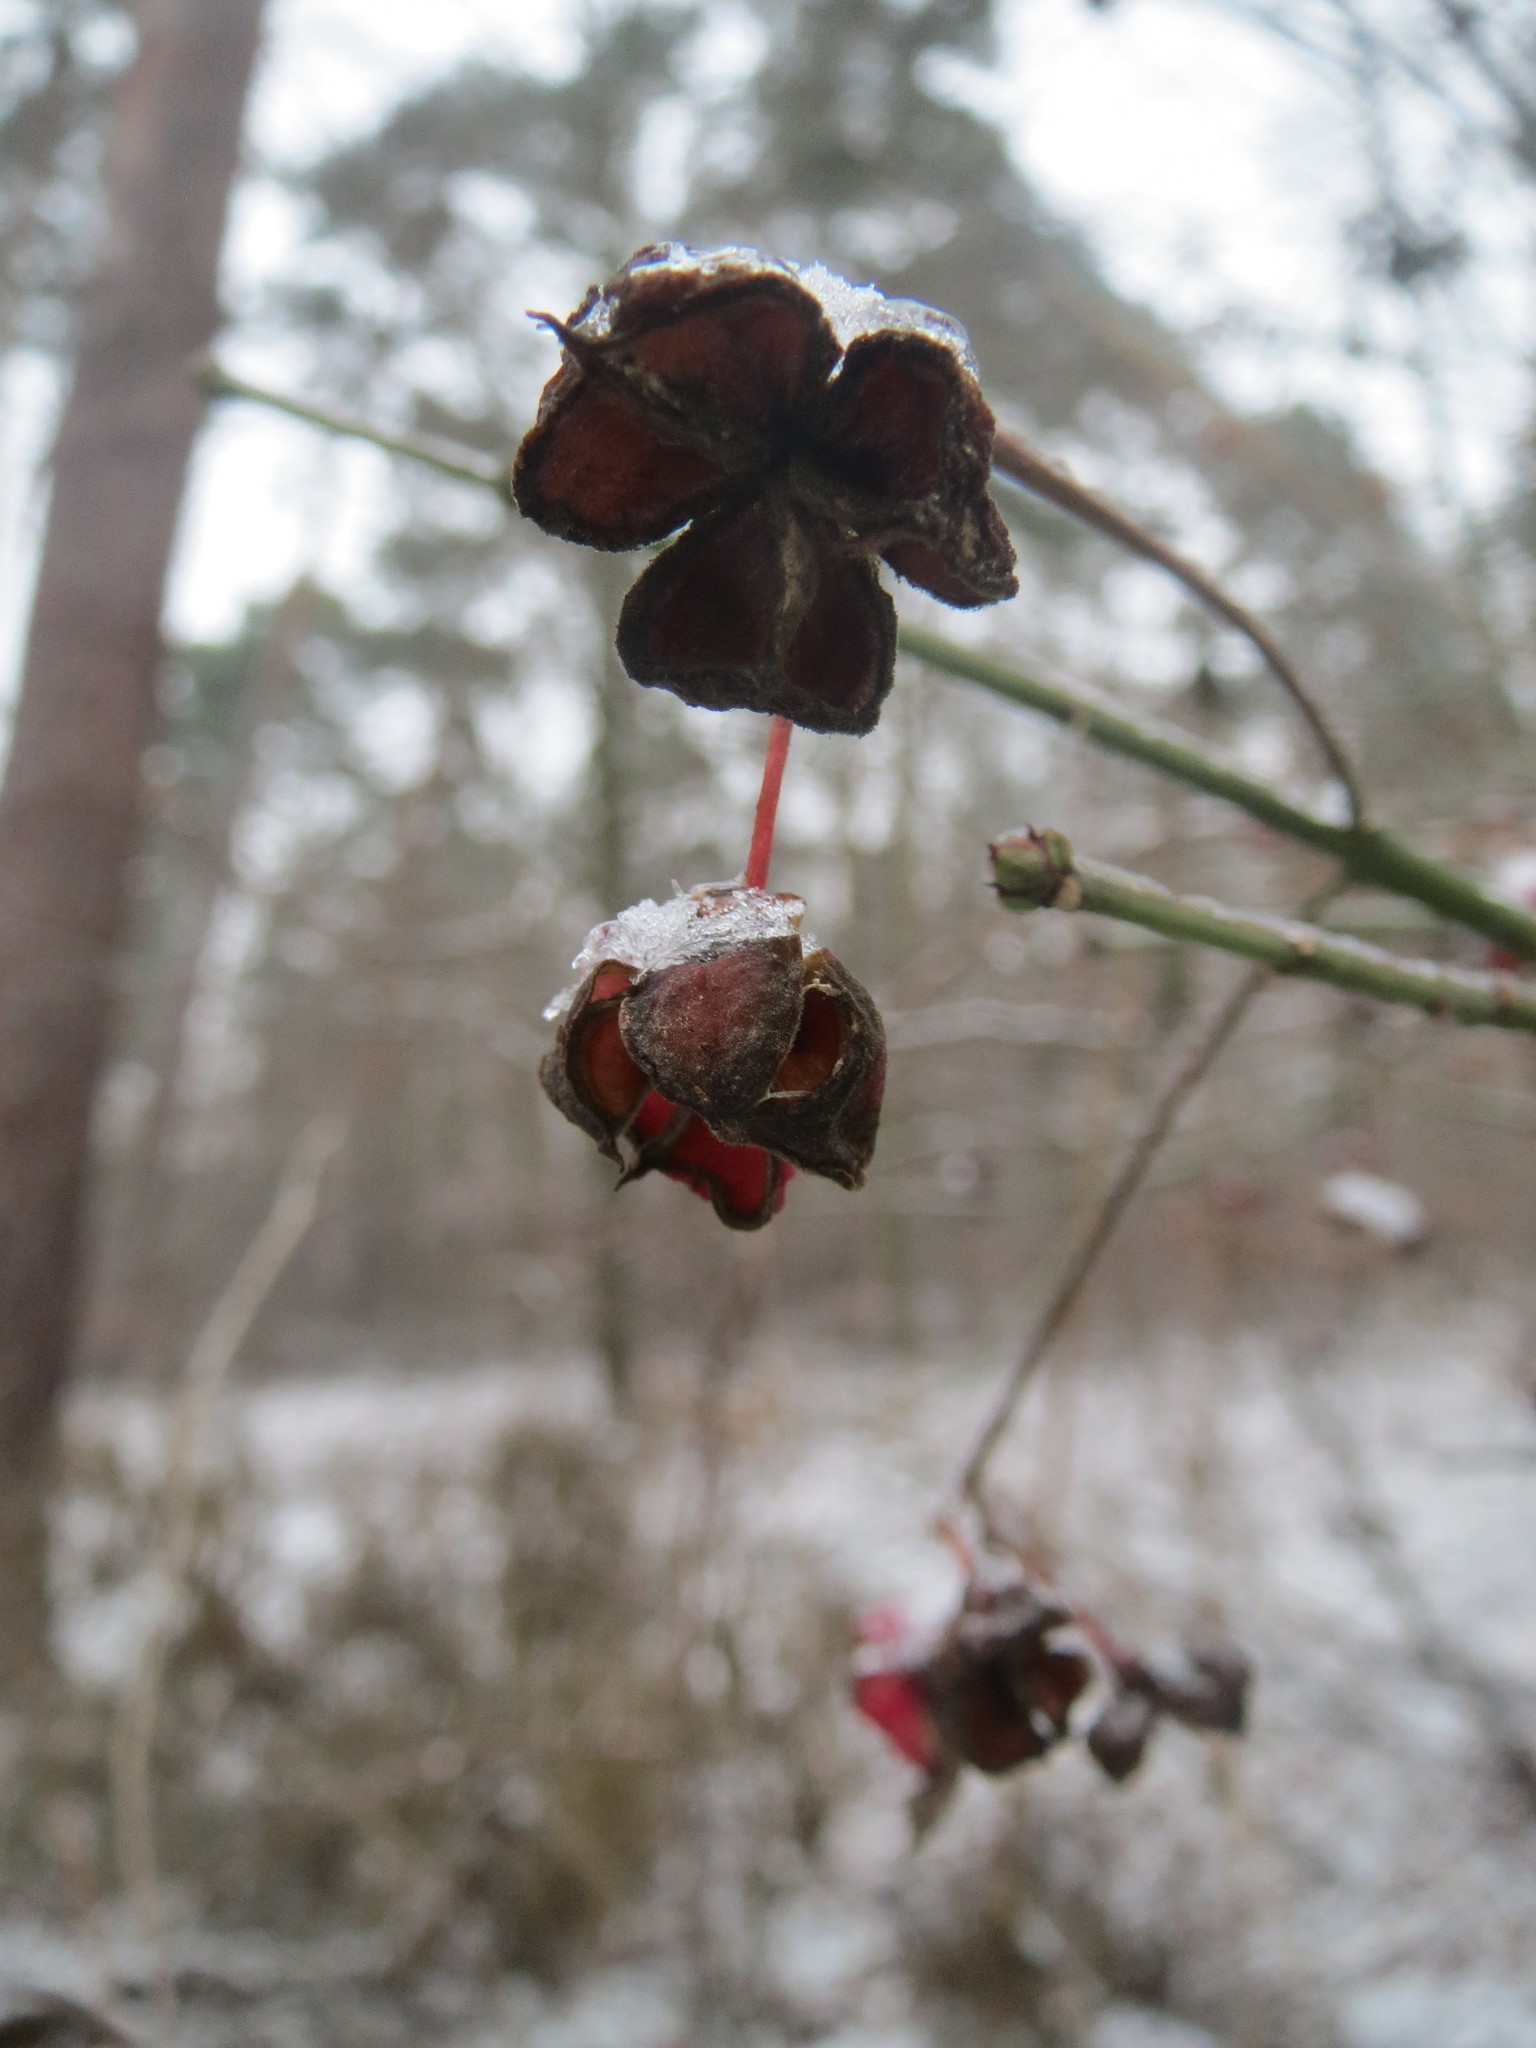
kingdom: Plantae
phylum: Tracheophyta
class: Magnoliopsida
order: Celastrales
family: Celastraceae
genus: Euonymus
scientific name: Euonymus europaeus
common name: Spindle
